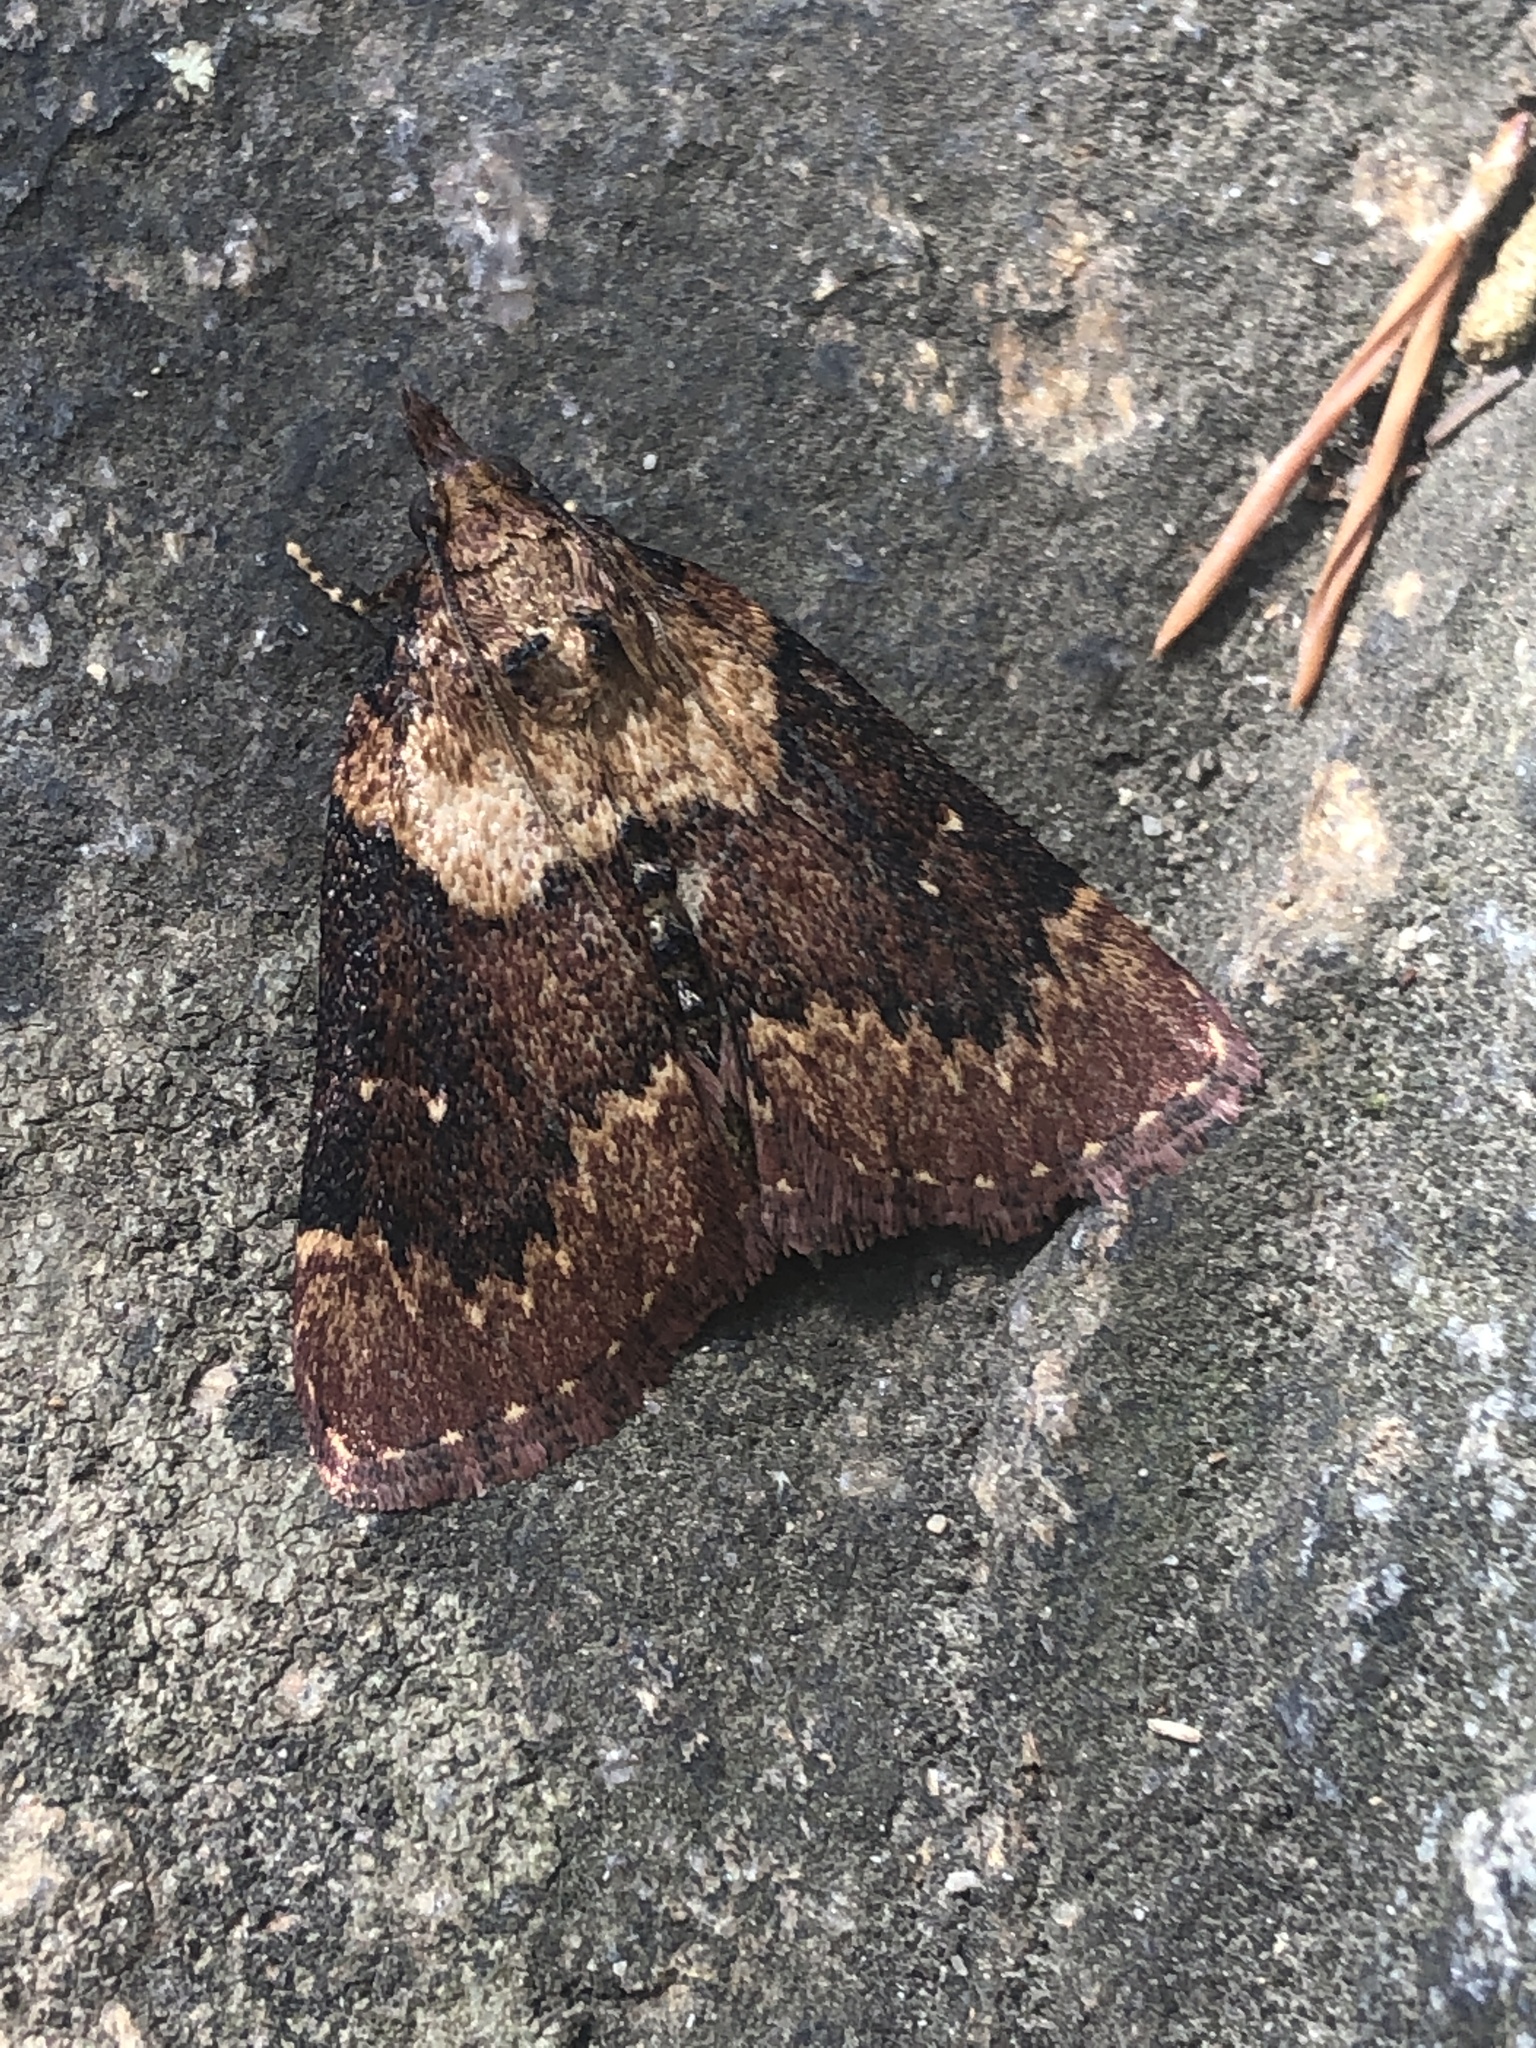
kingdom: Animalia
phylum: Arthropoda
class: Insecta
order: Lepidoptera
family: Pyralidae
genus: Omphalocera
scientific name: Omphalocera munroei
